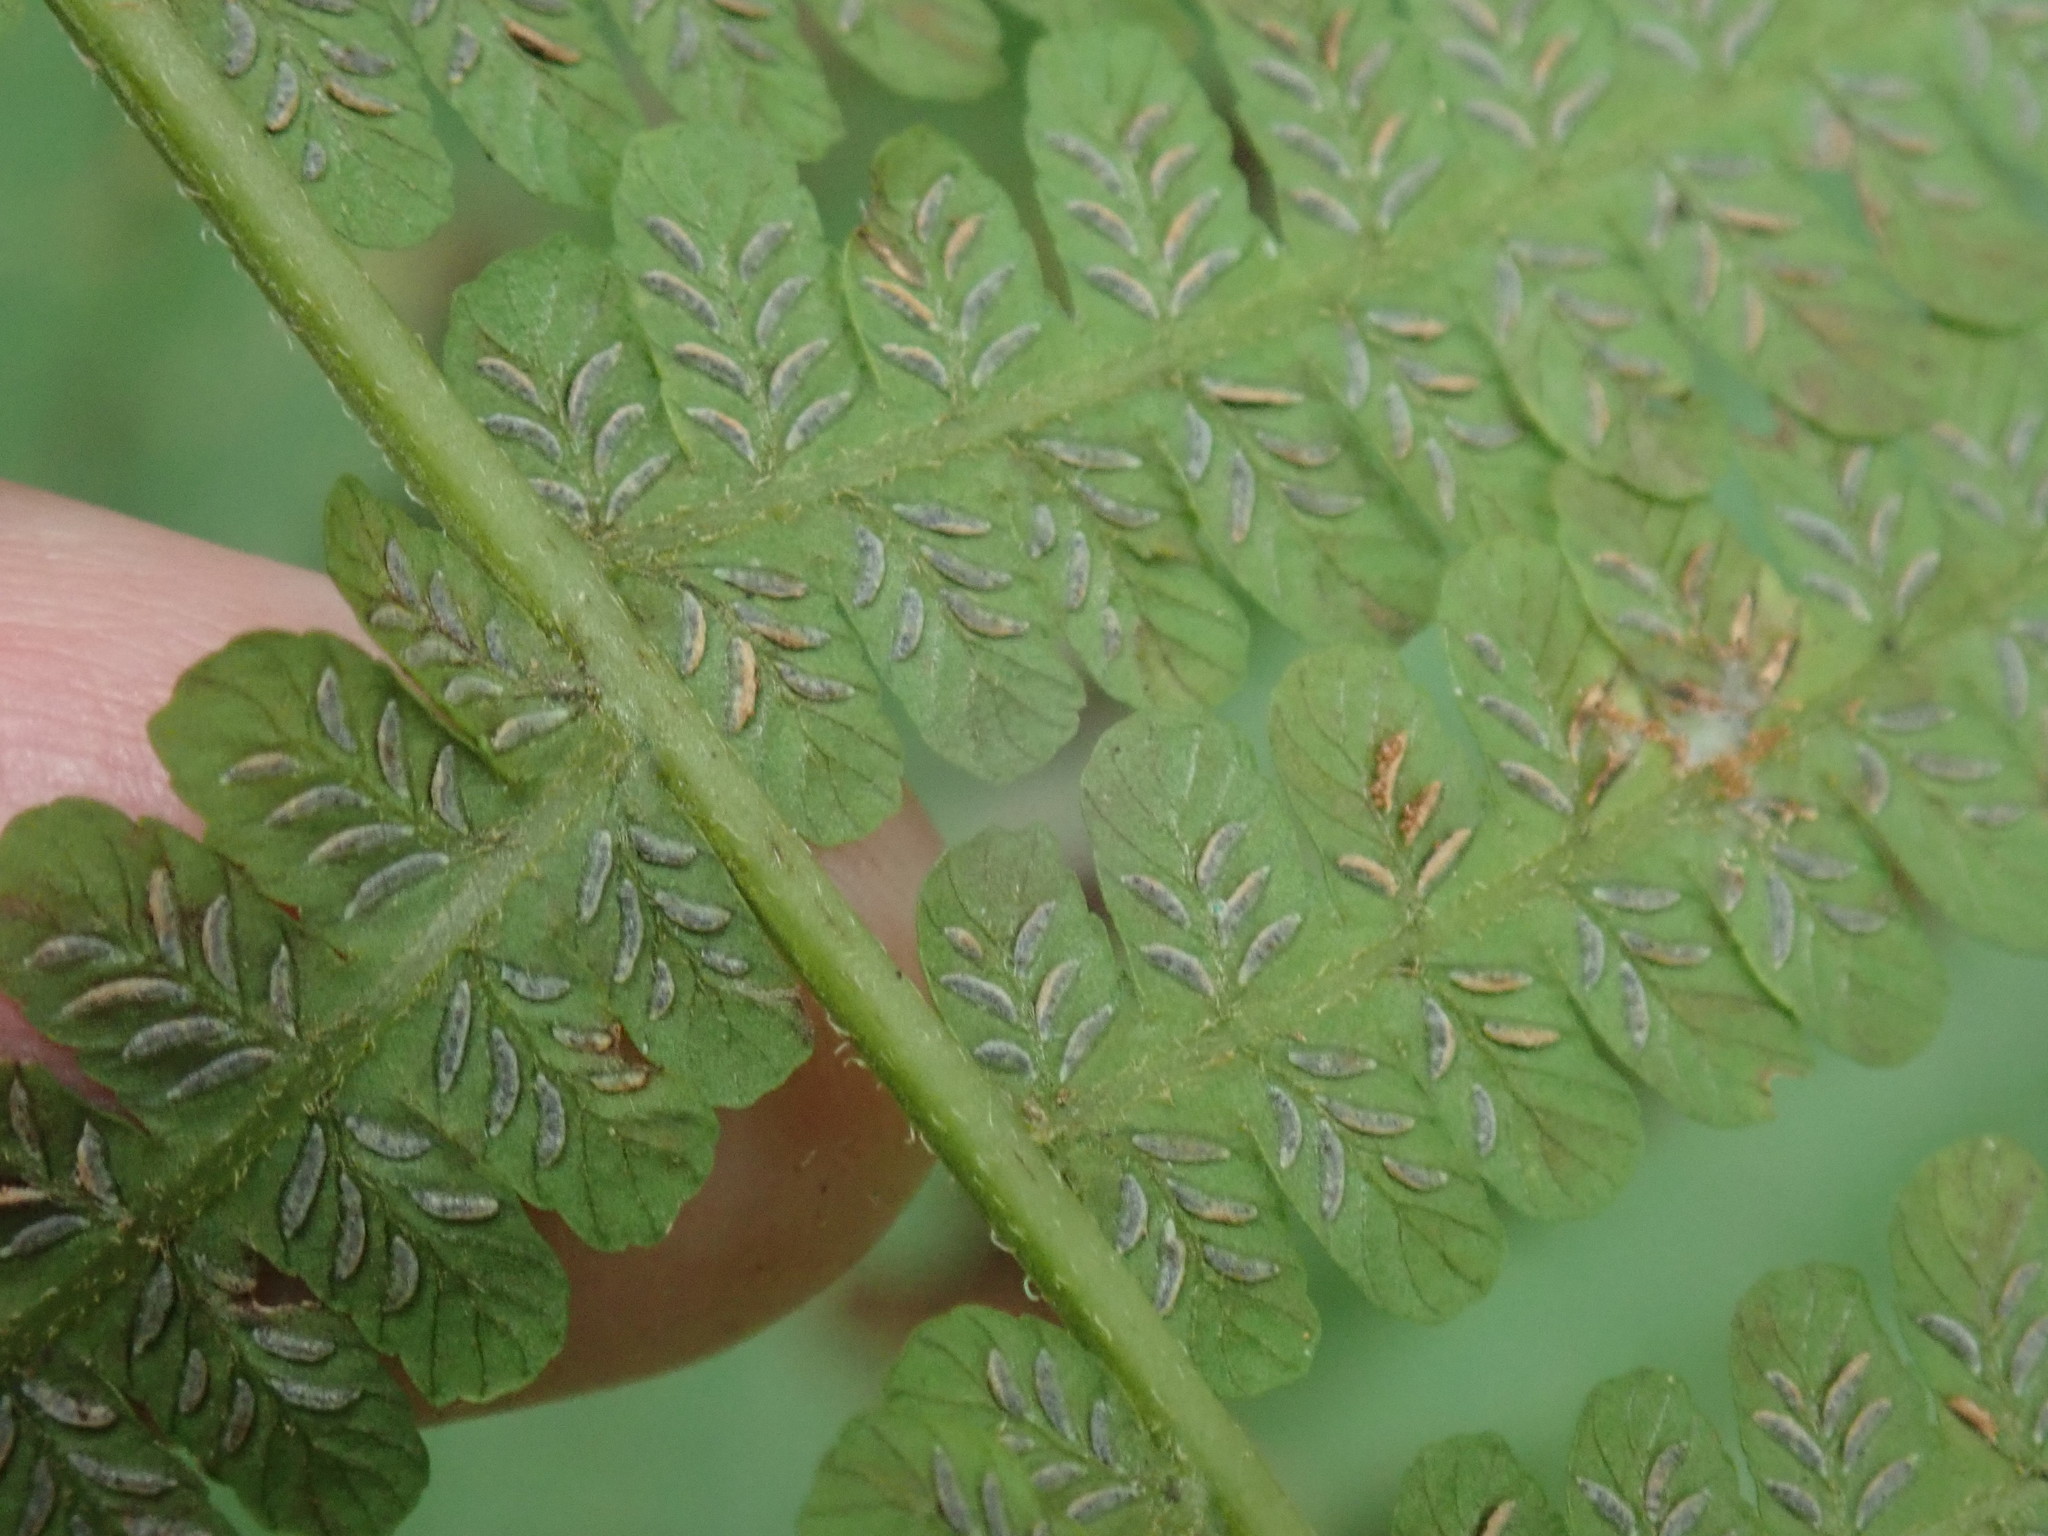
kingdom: Plantae
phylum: Tracheophyta
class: Polypodiopsida
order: Polypodiales
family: Athyriaceae
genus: Deparia
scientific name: Deparia acrostichoides
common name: Silver false spleenwort
